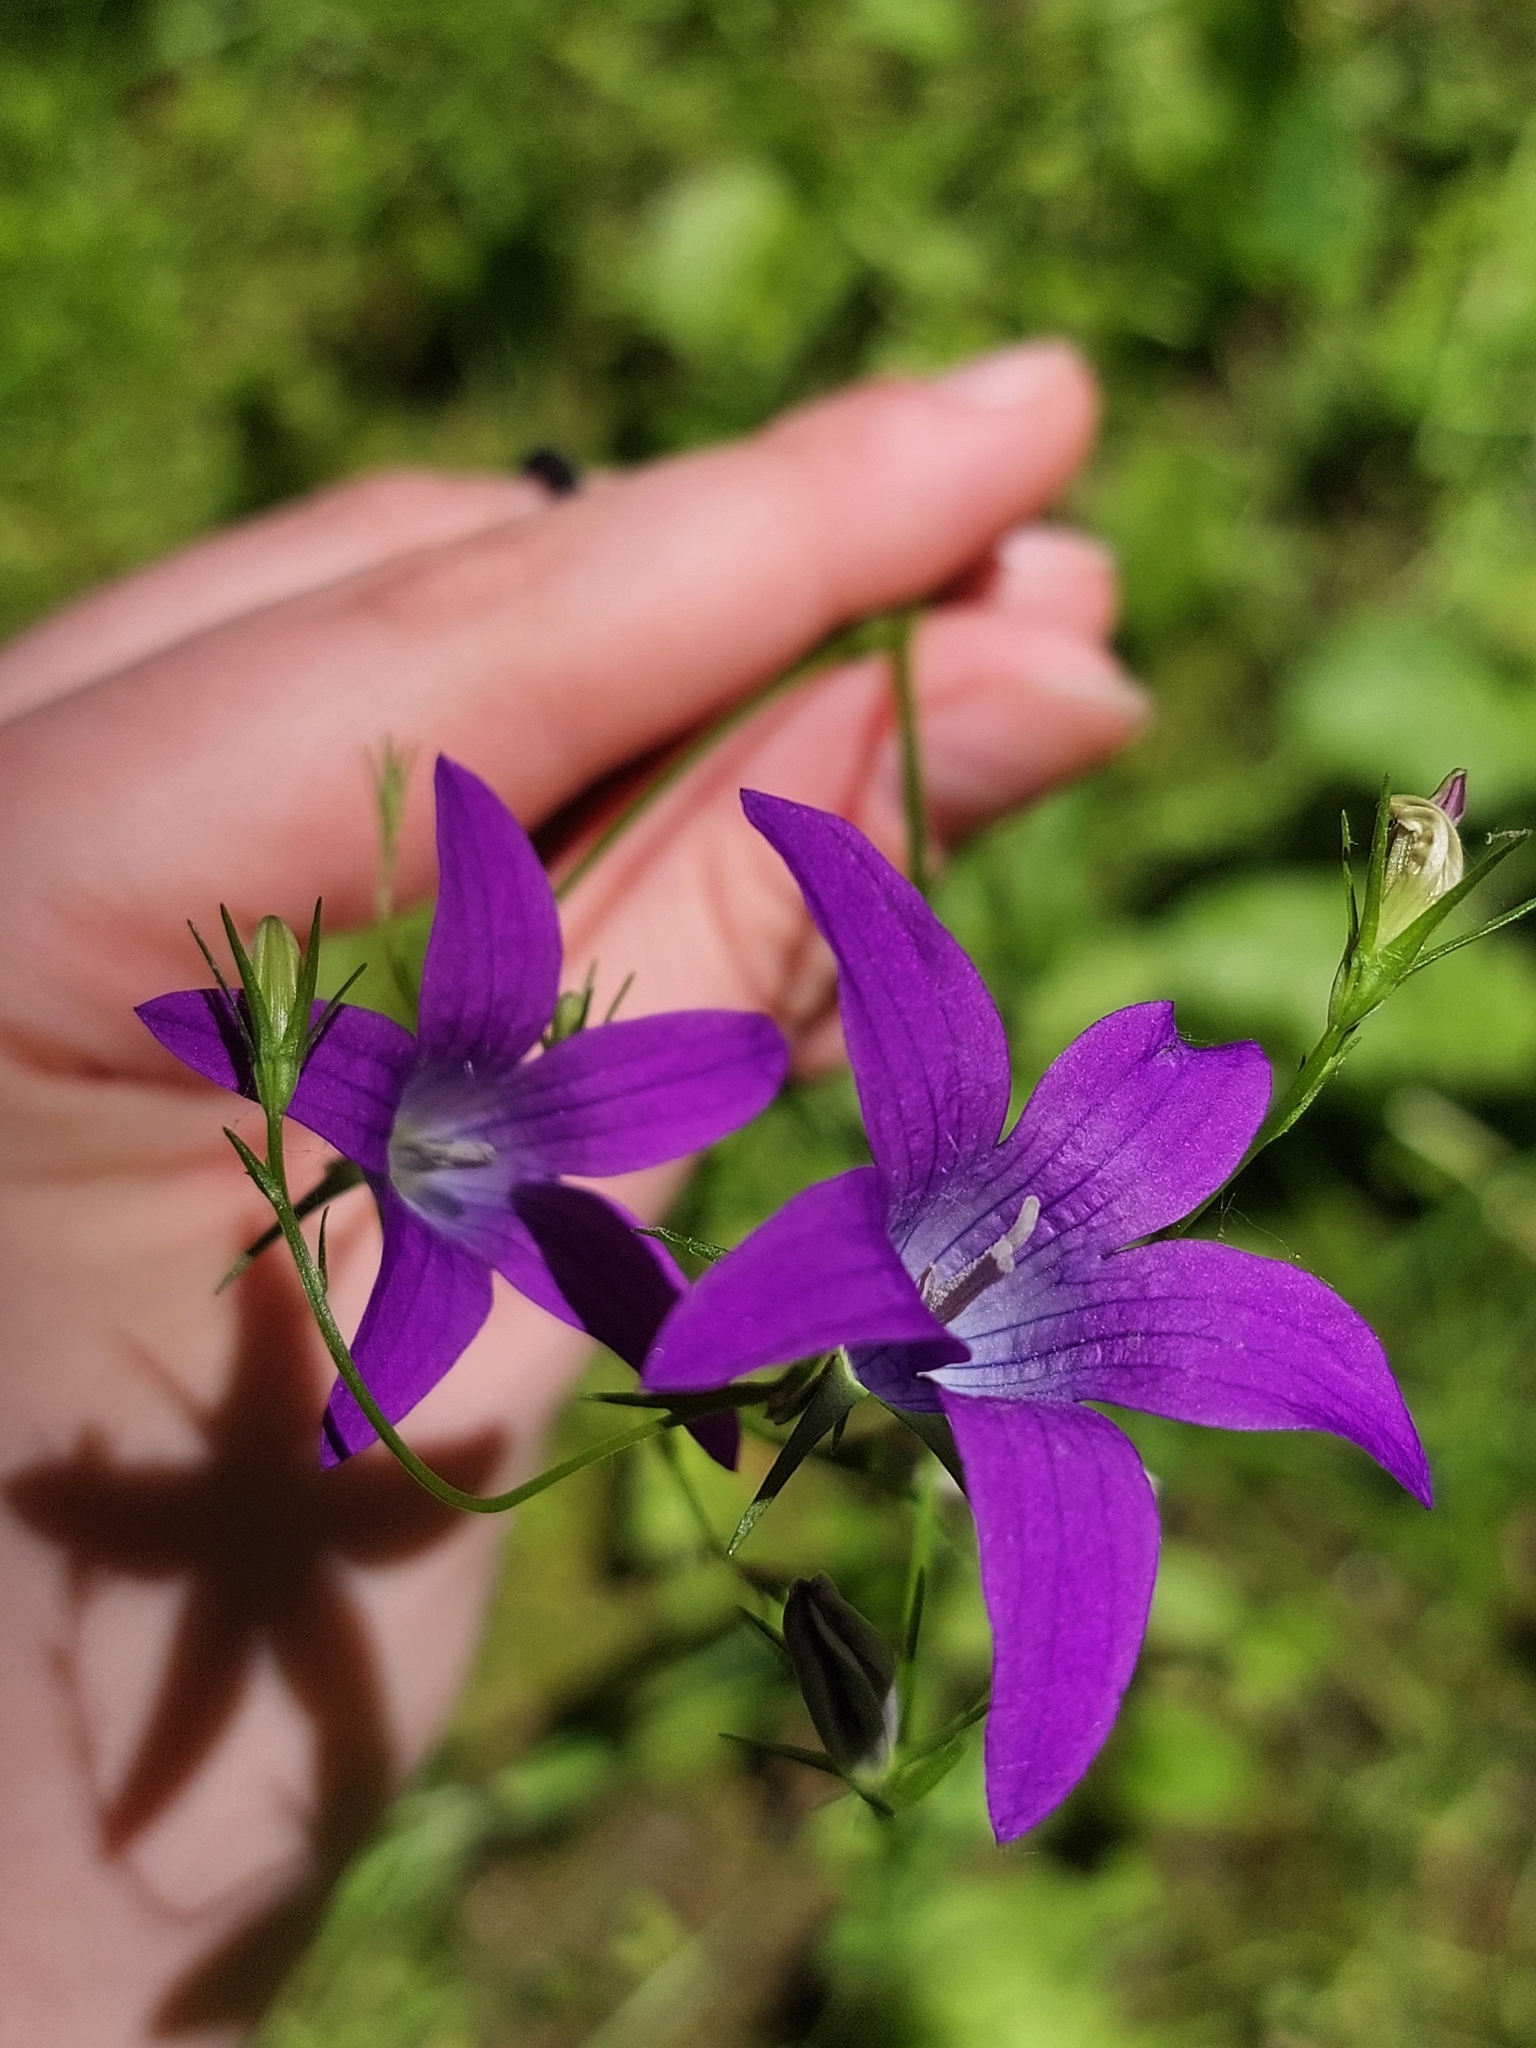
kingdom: Plantae
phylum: Tracheophyta
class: Magnoliopsida
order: Asterales
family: Campanulaceae
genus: Campanula
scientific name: Campanula patula
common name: Spreading bellflower
